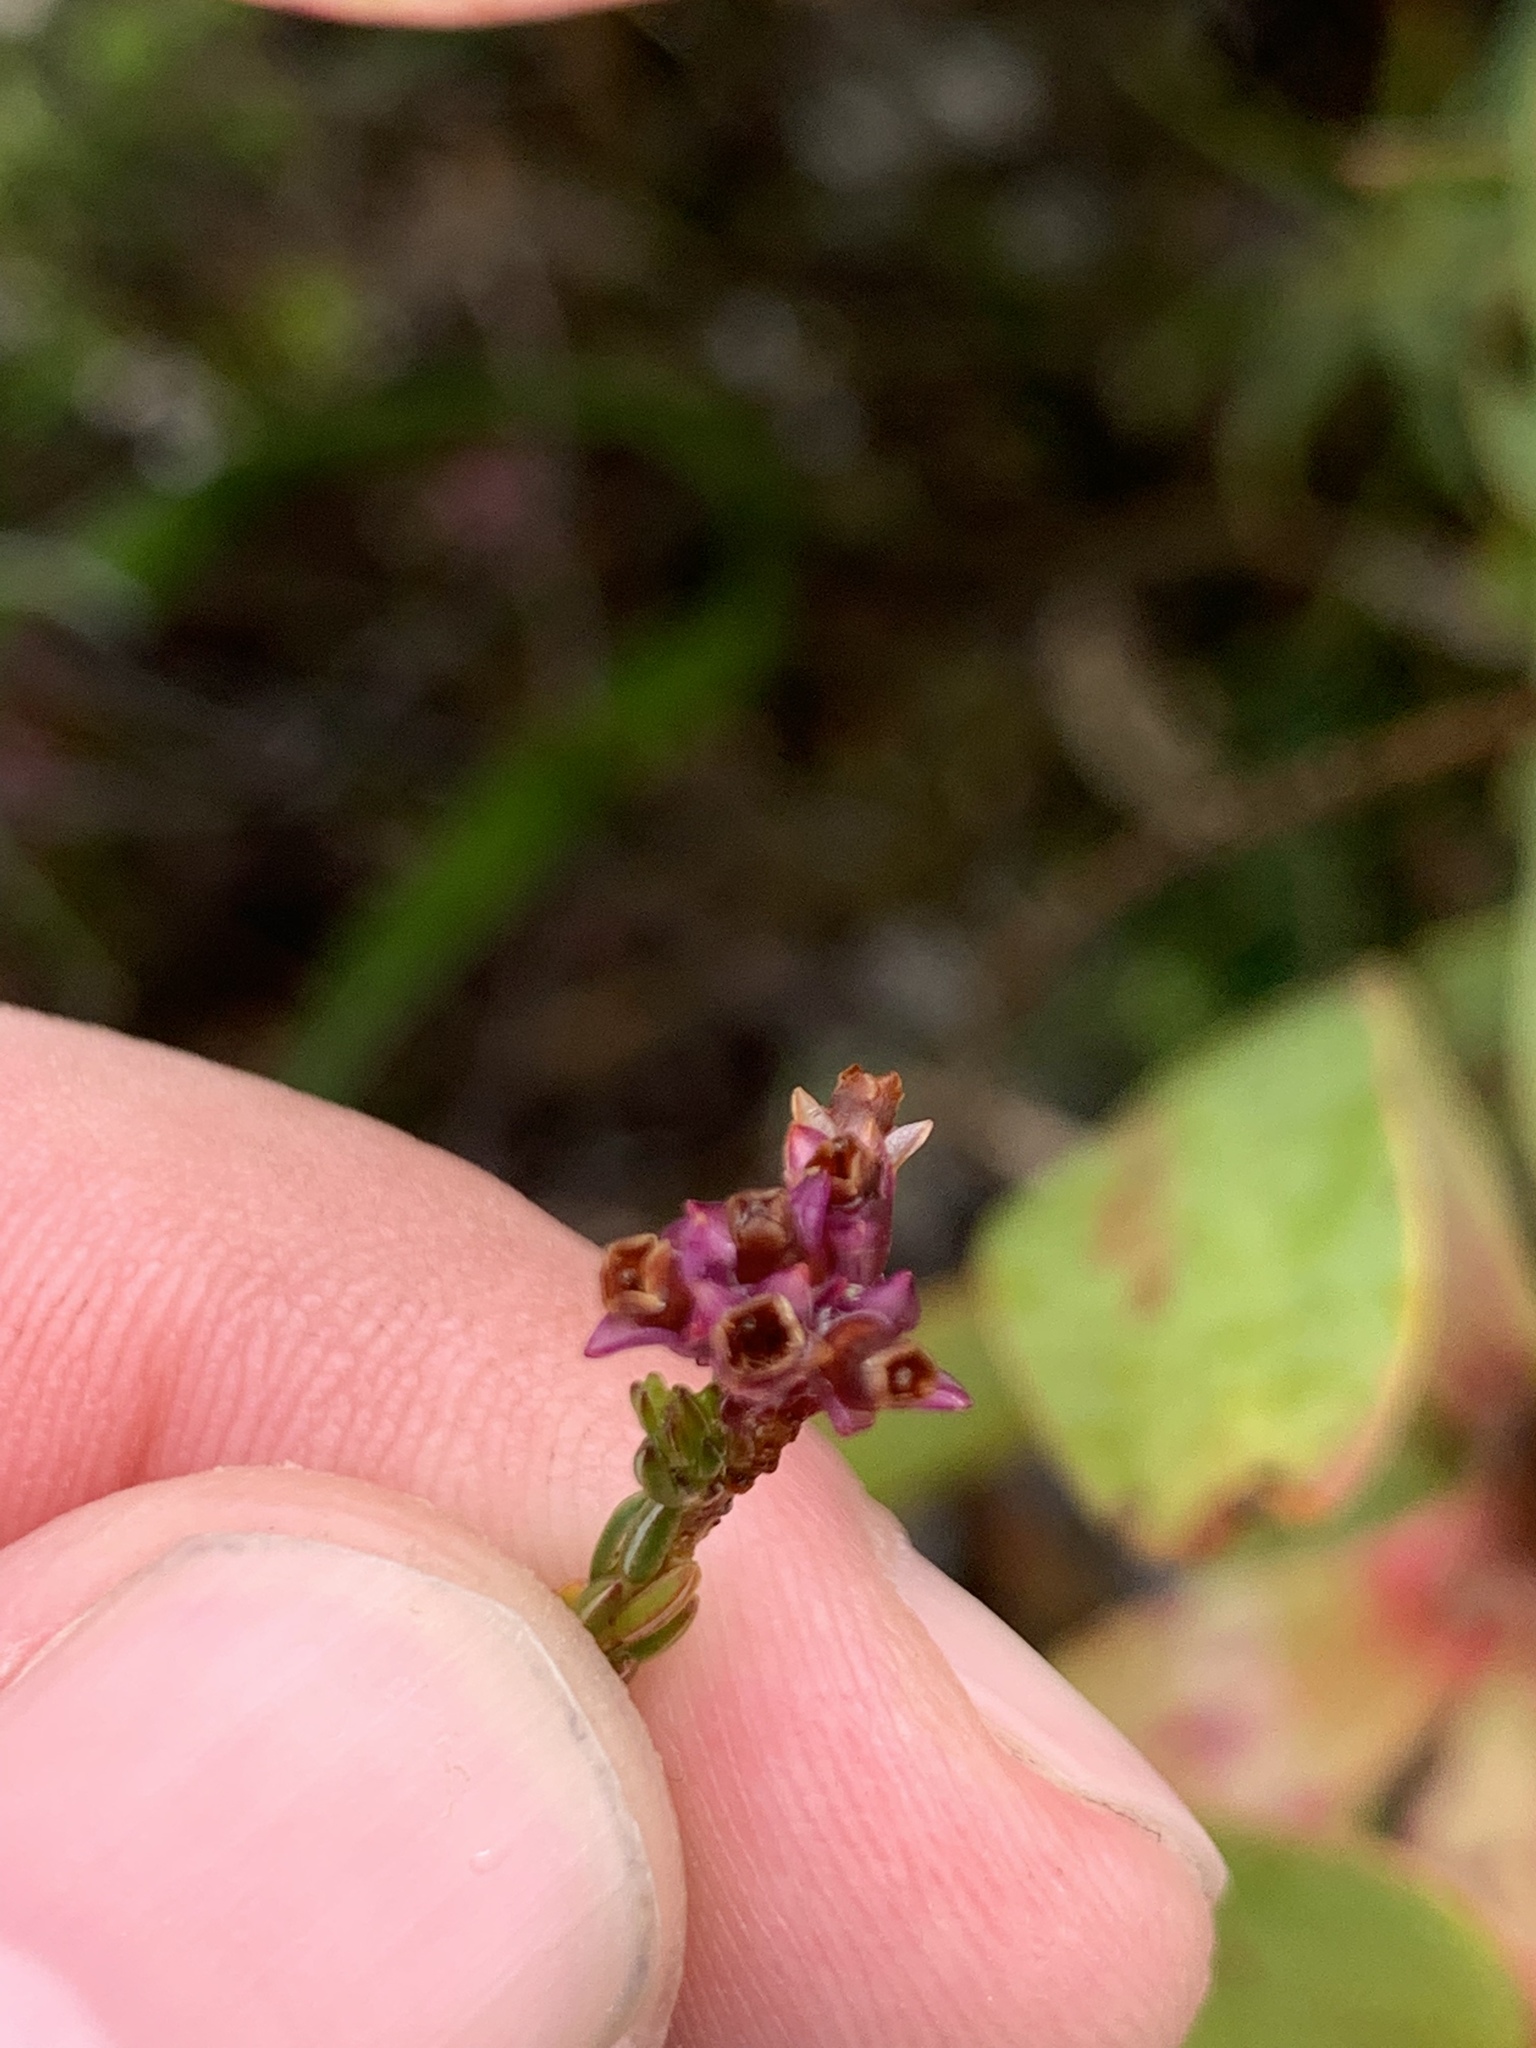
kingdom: Plantae
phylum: Tracheophyta
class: Magnoliopsida
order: Ericales
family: Ericaceae
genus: Erica
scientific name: Erica corifolia
